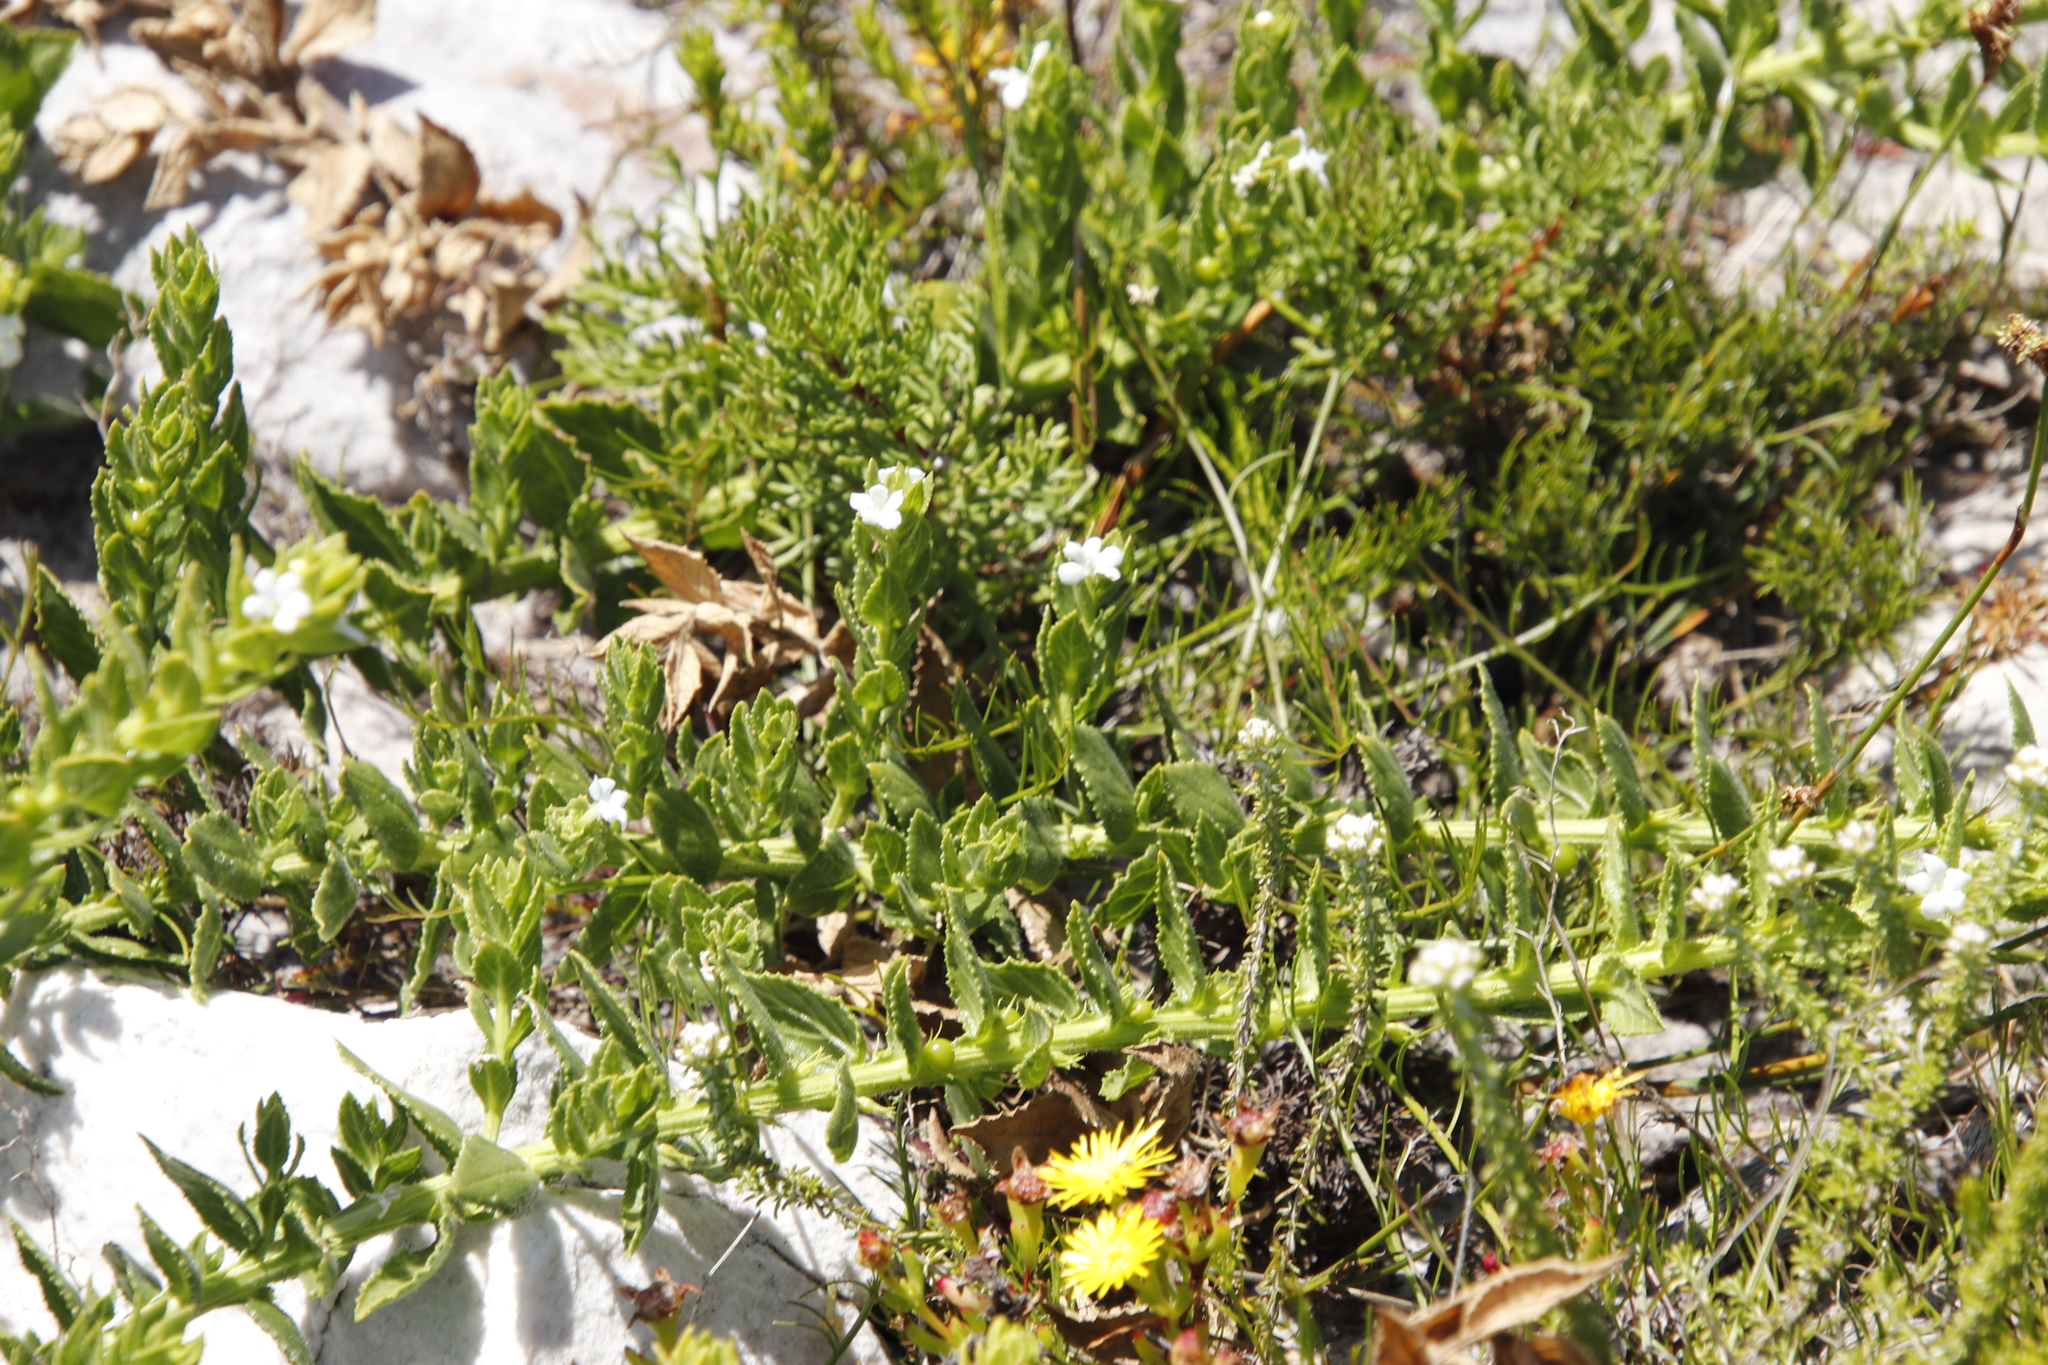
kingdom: Plantae
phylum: Tracheophyta
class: Magnoliopsida
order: Lamiales
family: Scrophulariaceae
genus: Oftia
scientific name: Oftia africana
